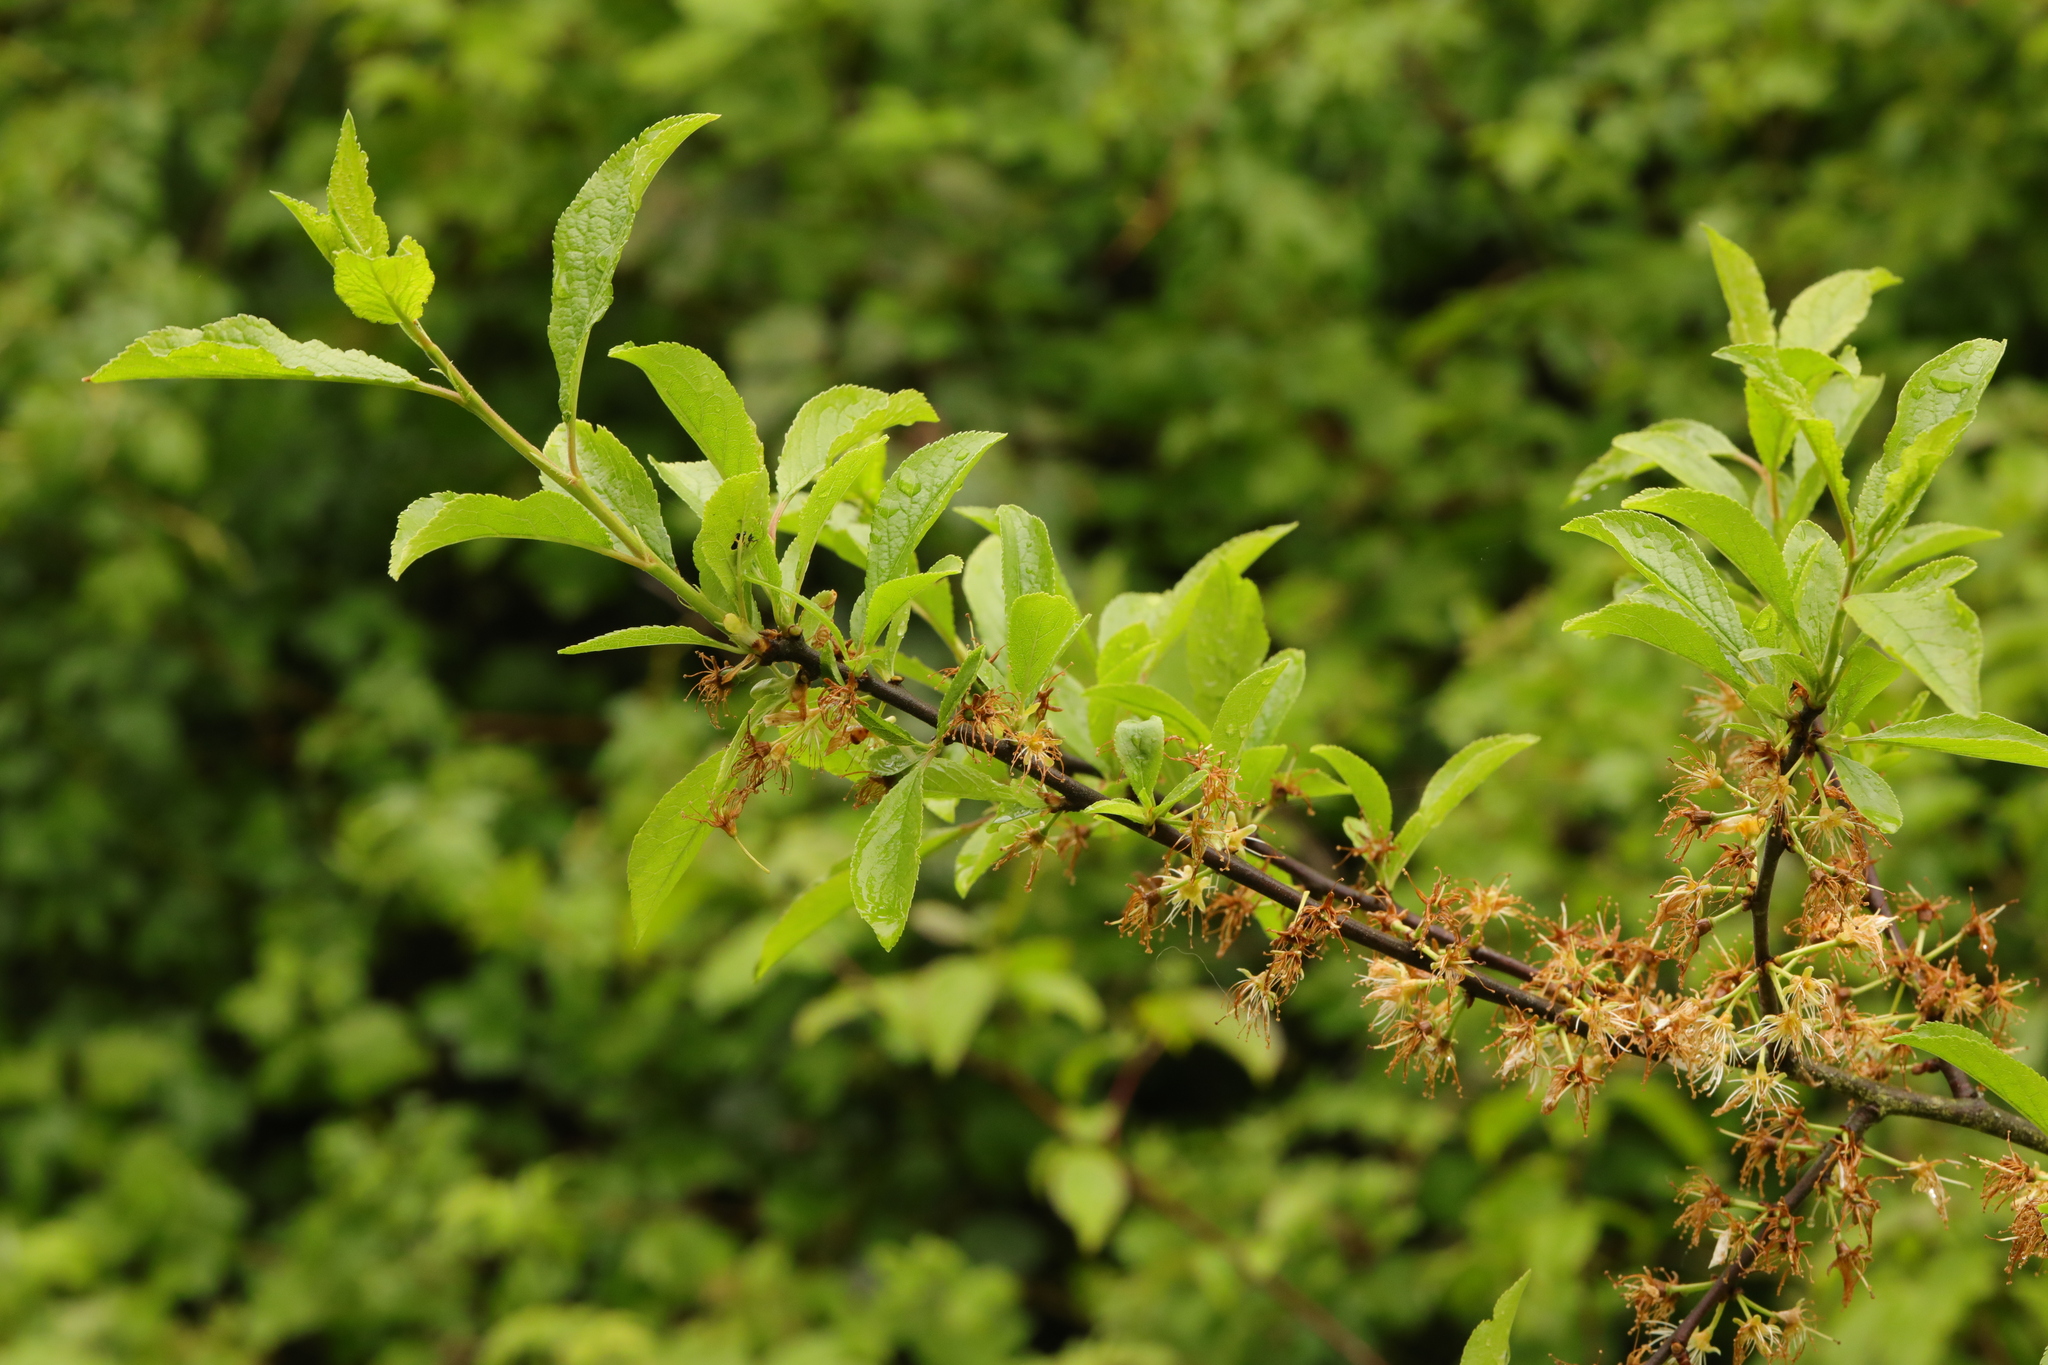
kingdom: Plantae
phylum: Tracheophyta
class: Magnoliopsida
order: Rosales
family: Rosaceae
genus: Prunus
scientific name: Prunus spinosa
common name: Blackthorn
